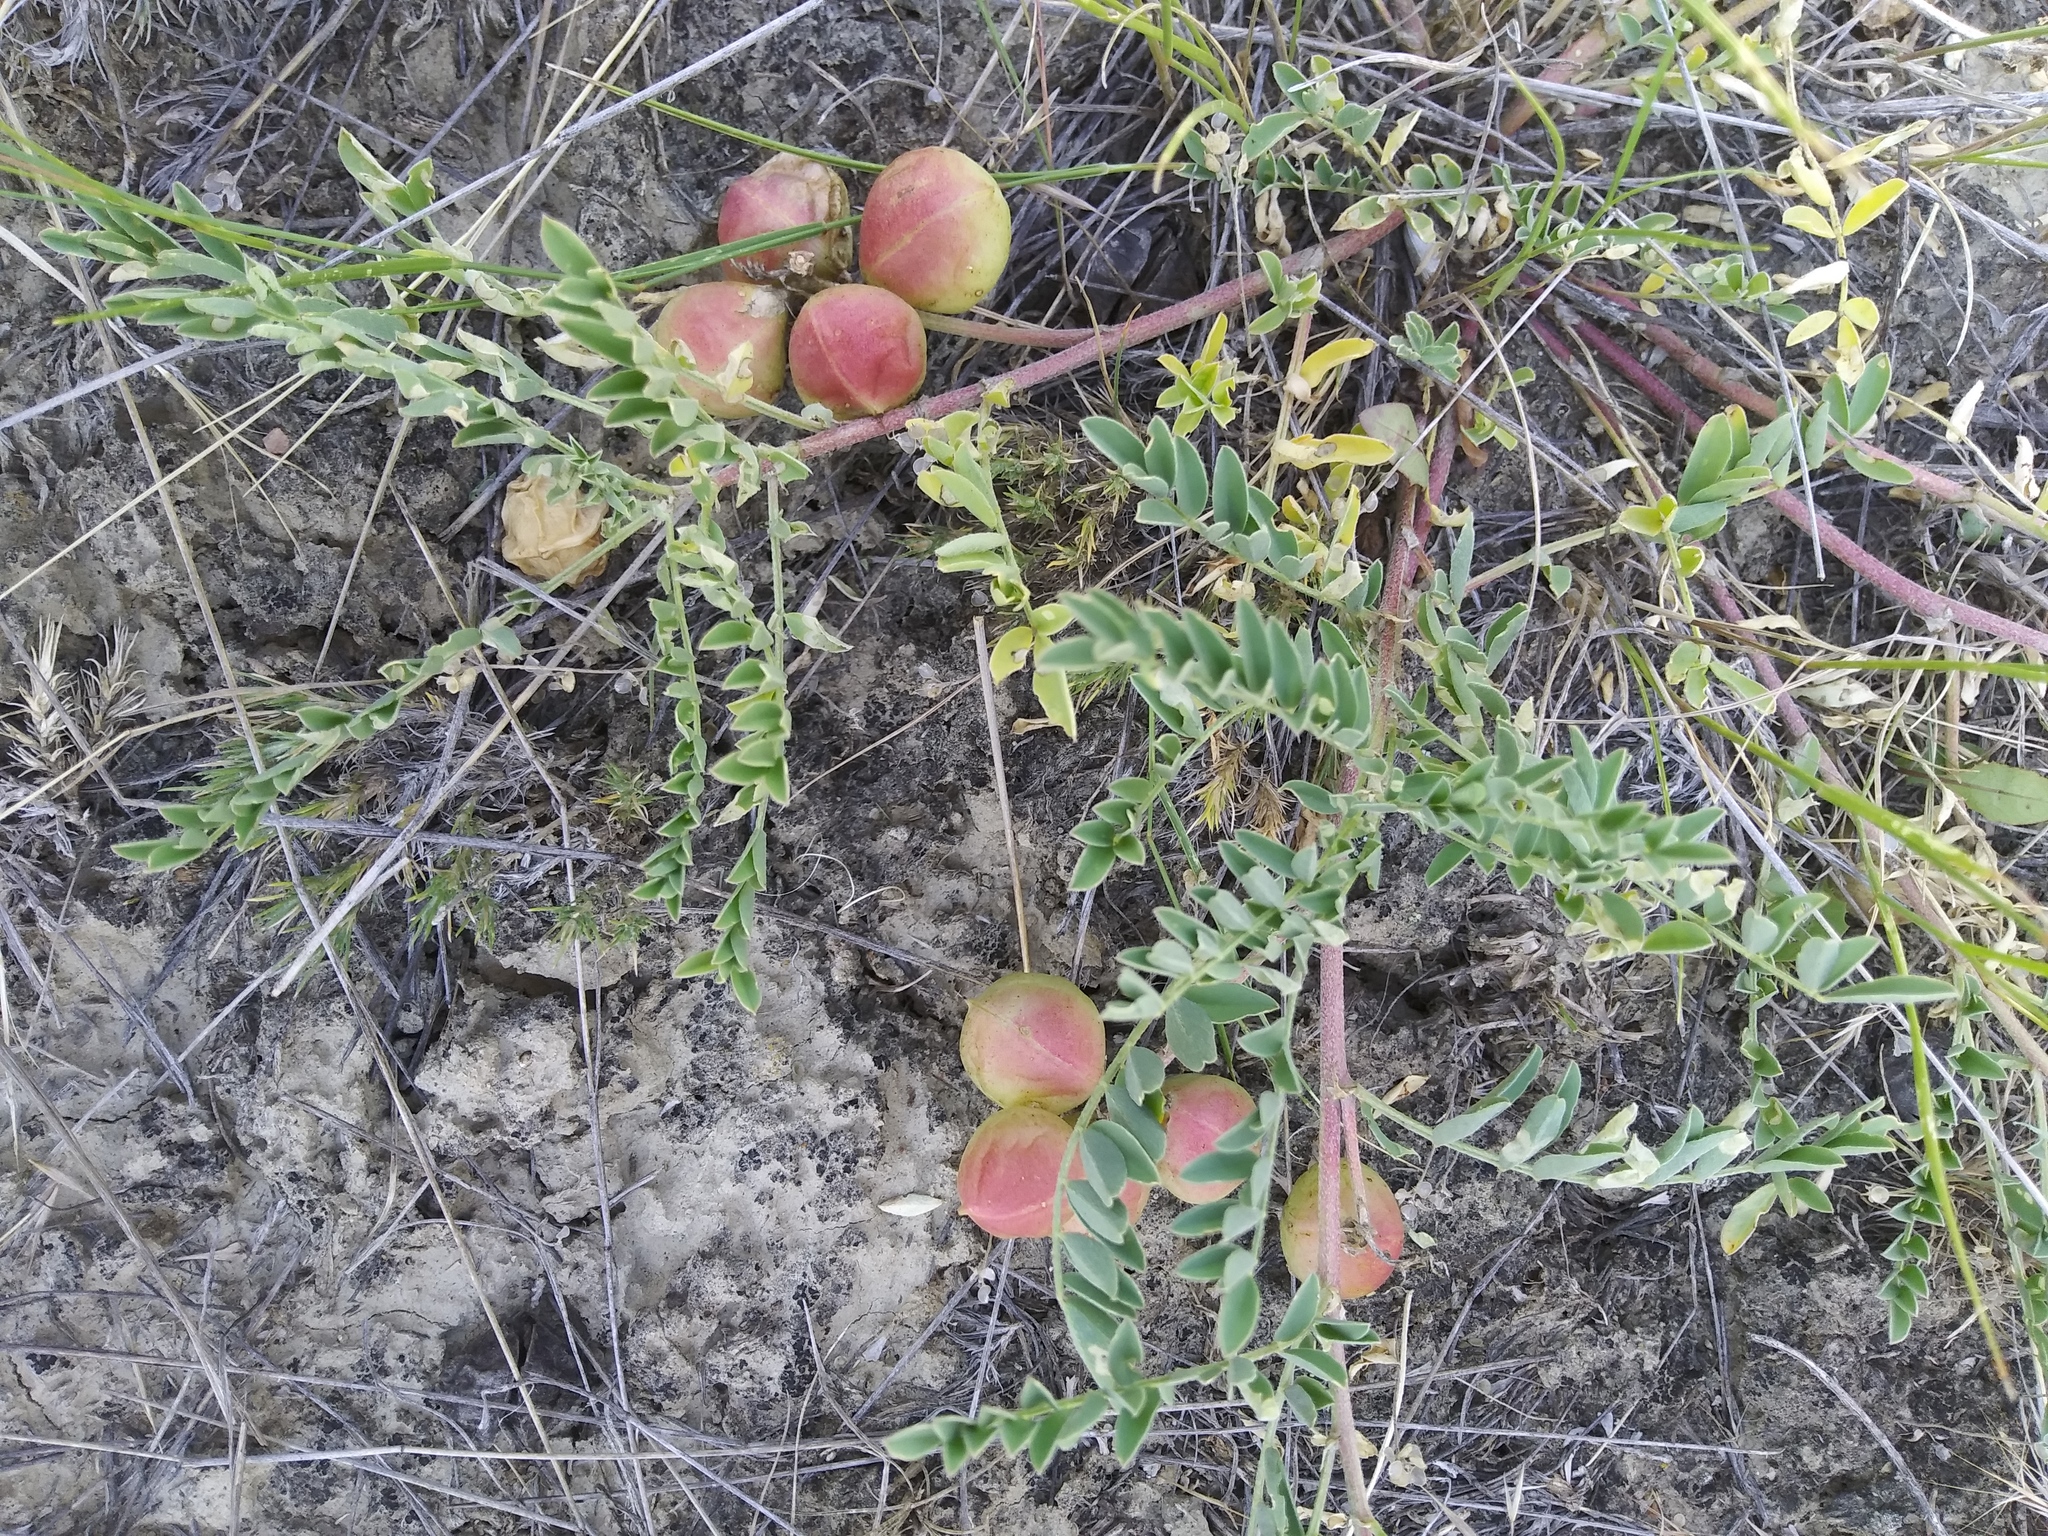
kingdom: Plantae
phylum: Tracheophyta
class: Magnoliopsida
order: Fabales
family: Fabaceae
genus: Astragalus
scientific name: Astragalus crassicarpus
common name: Ground-plum milk-vetch
